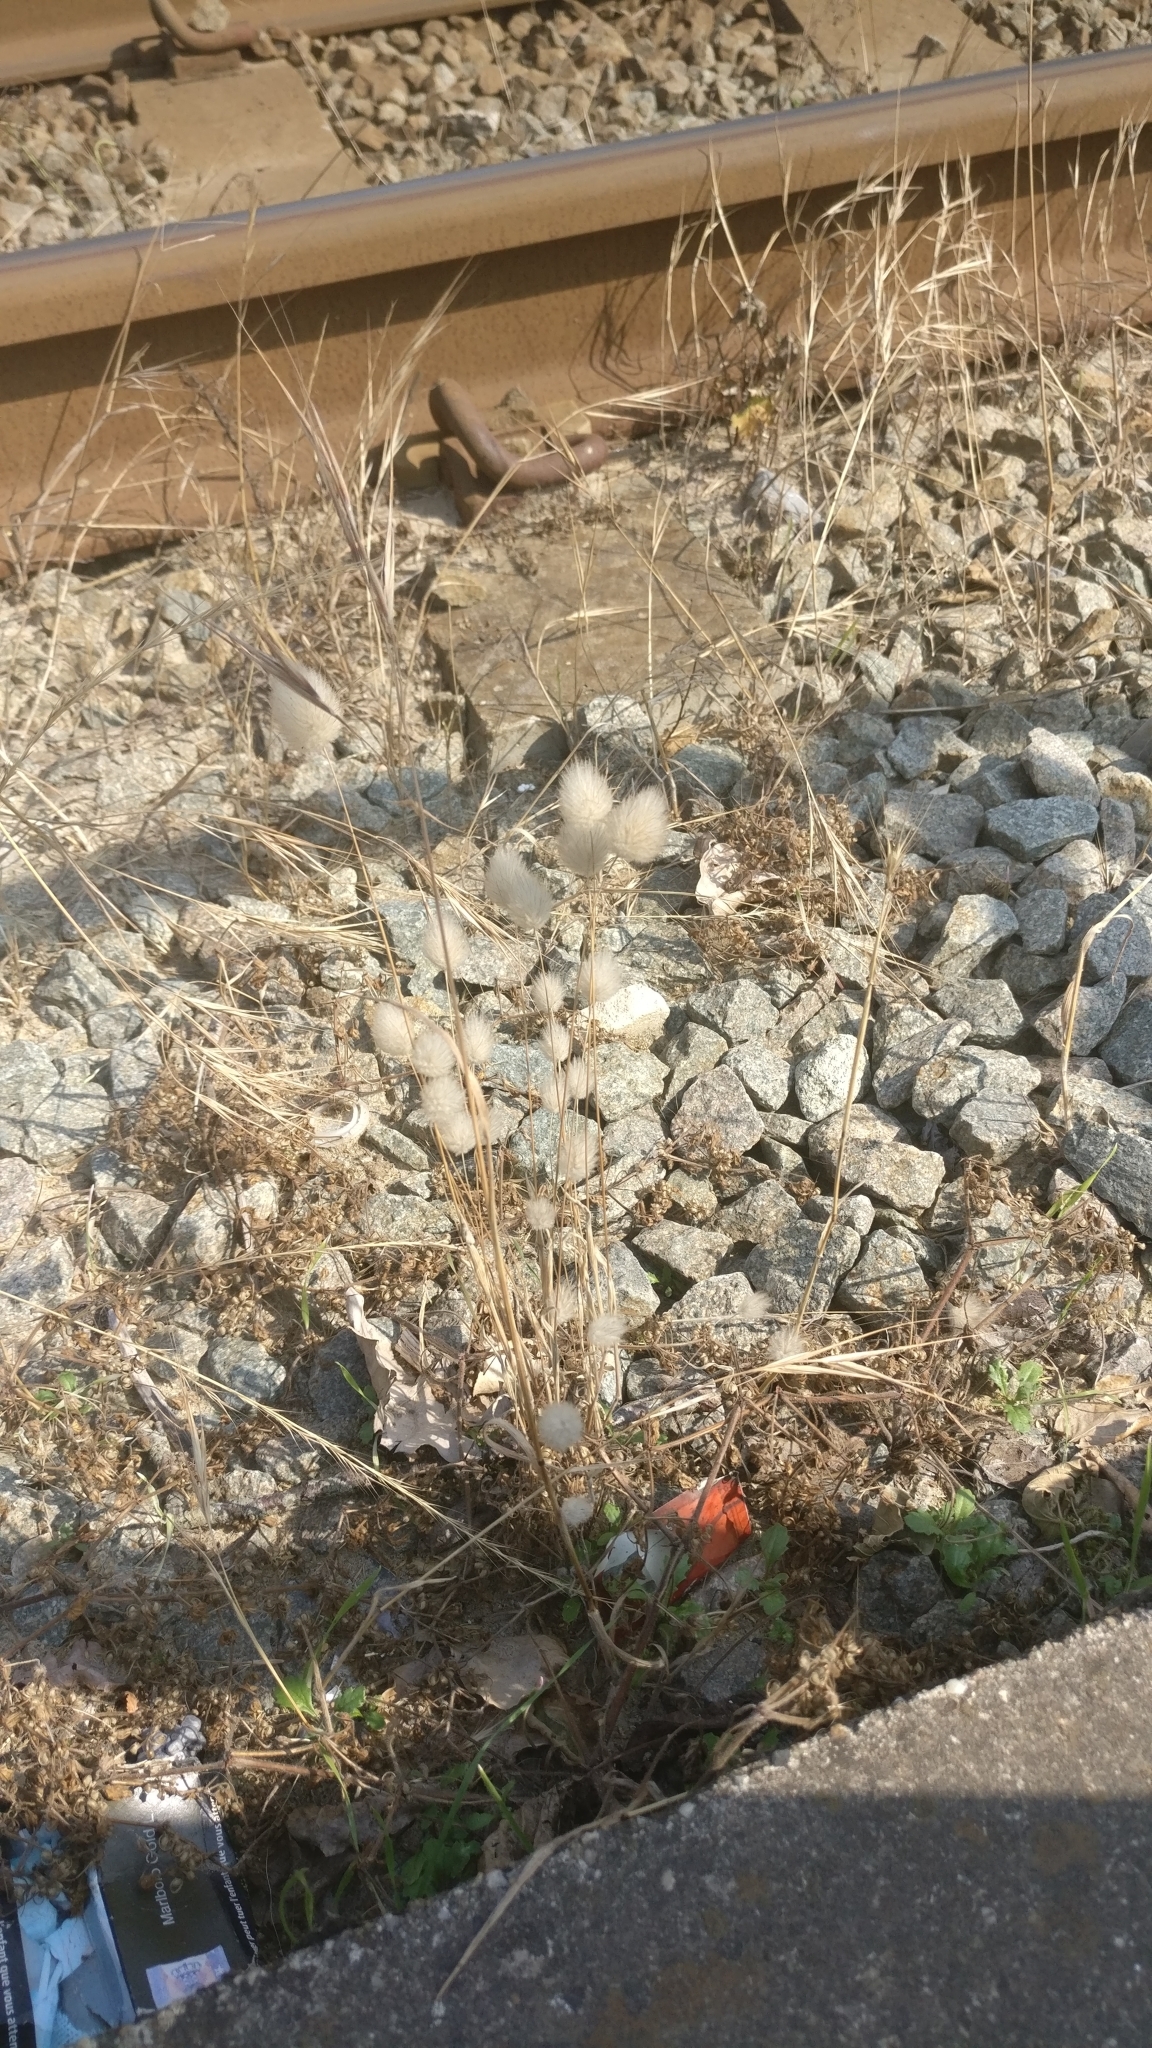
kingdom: Plantae
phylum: Tracheophyta
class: Liliopsida
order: Poales
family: Poaceae
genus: Lagurus
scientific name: Lagurus ovatus
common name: Hare's-tail
